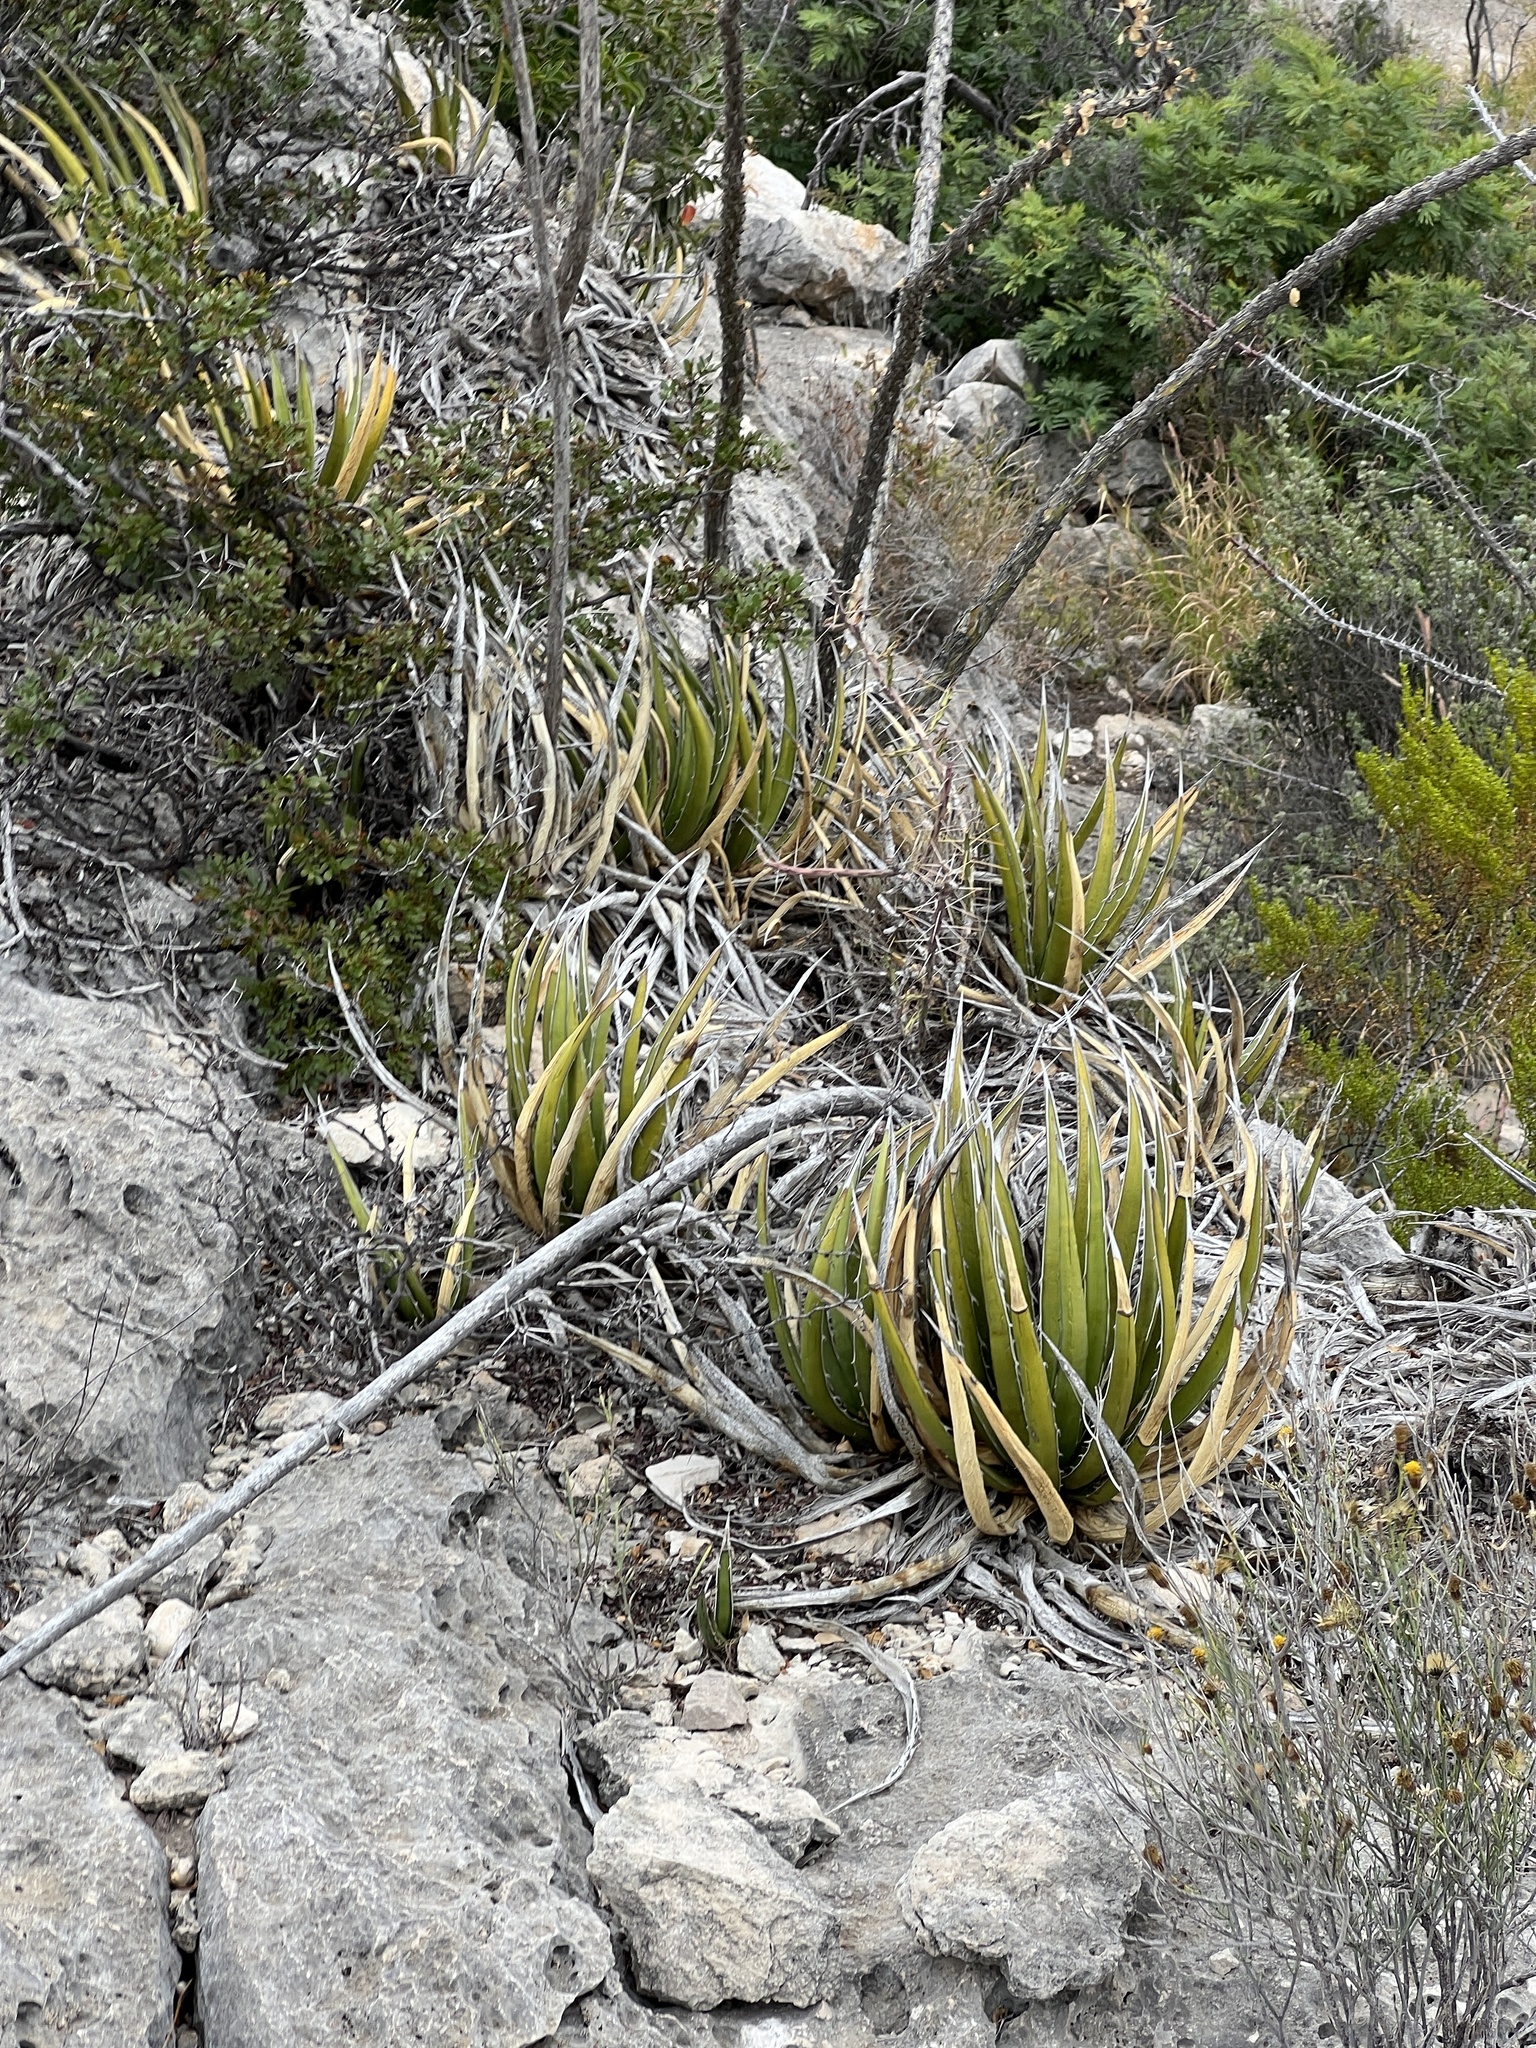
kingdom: Plantae
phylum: Tracheophyta
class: Liliopsida
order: Asparagales
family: Asparagaceae
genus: Agave
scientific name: Agave lechuguilla
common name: Lecheguilla agave
